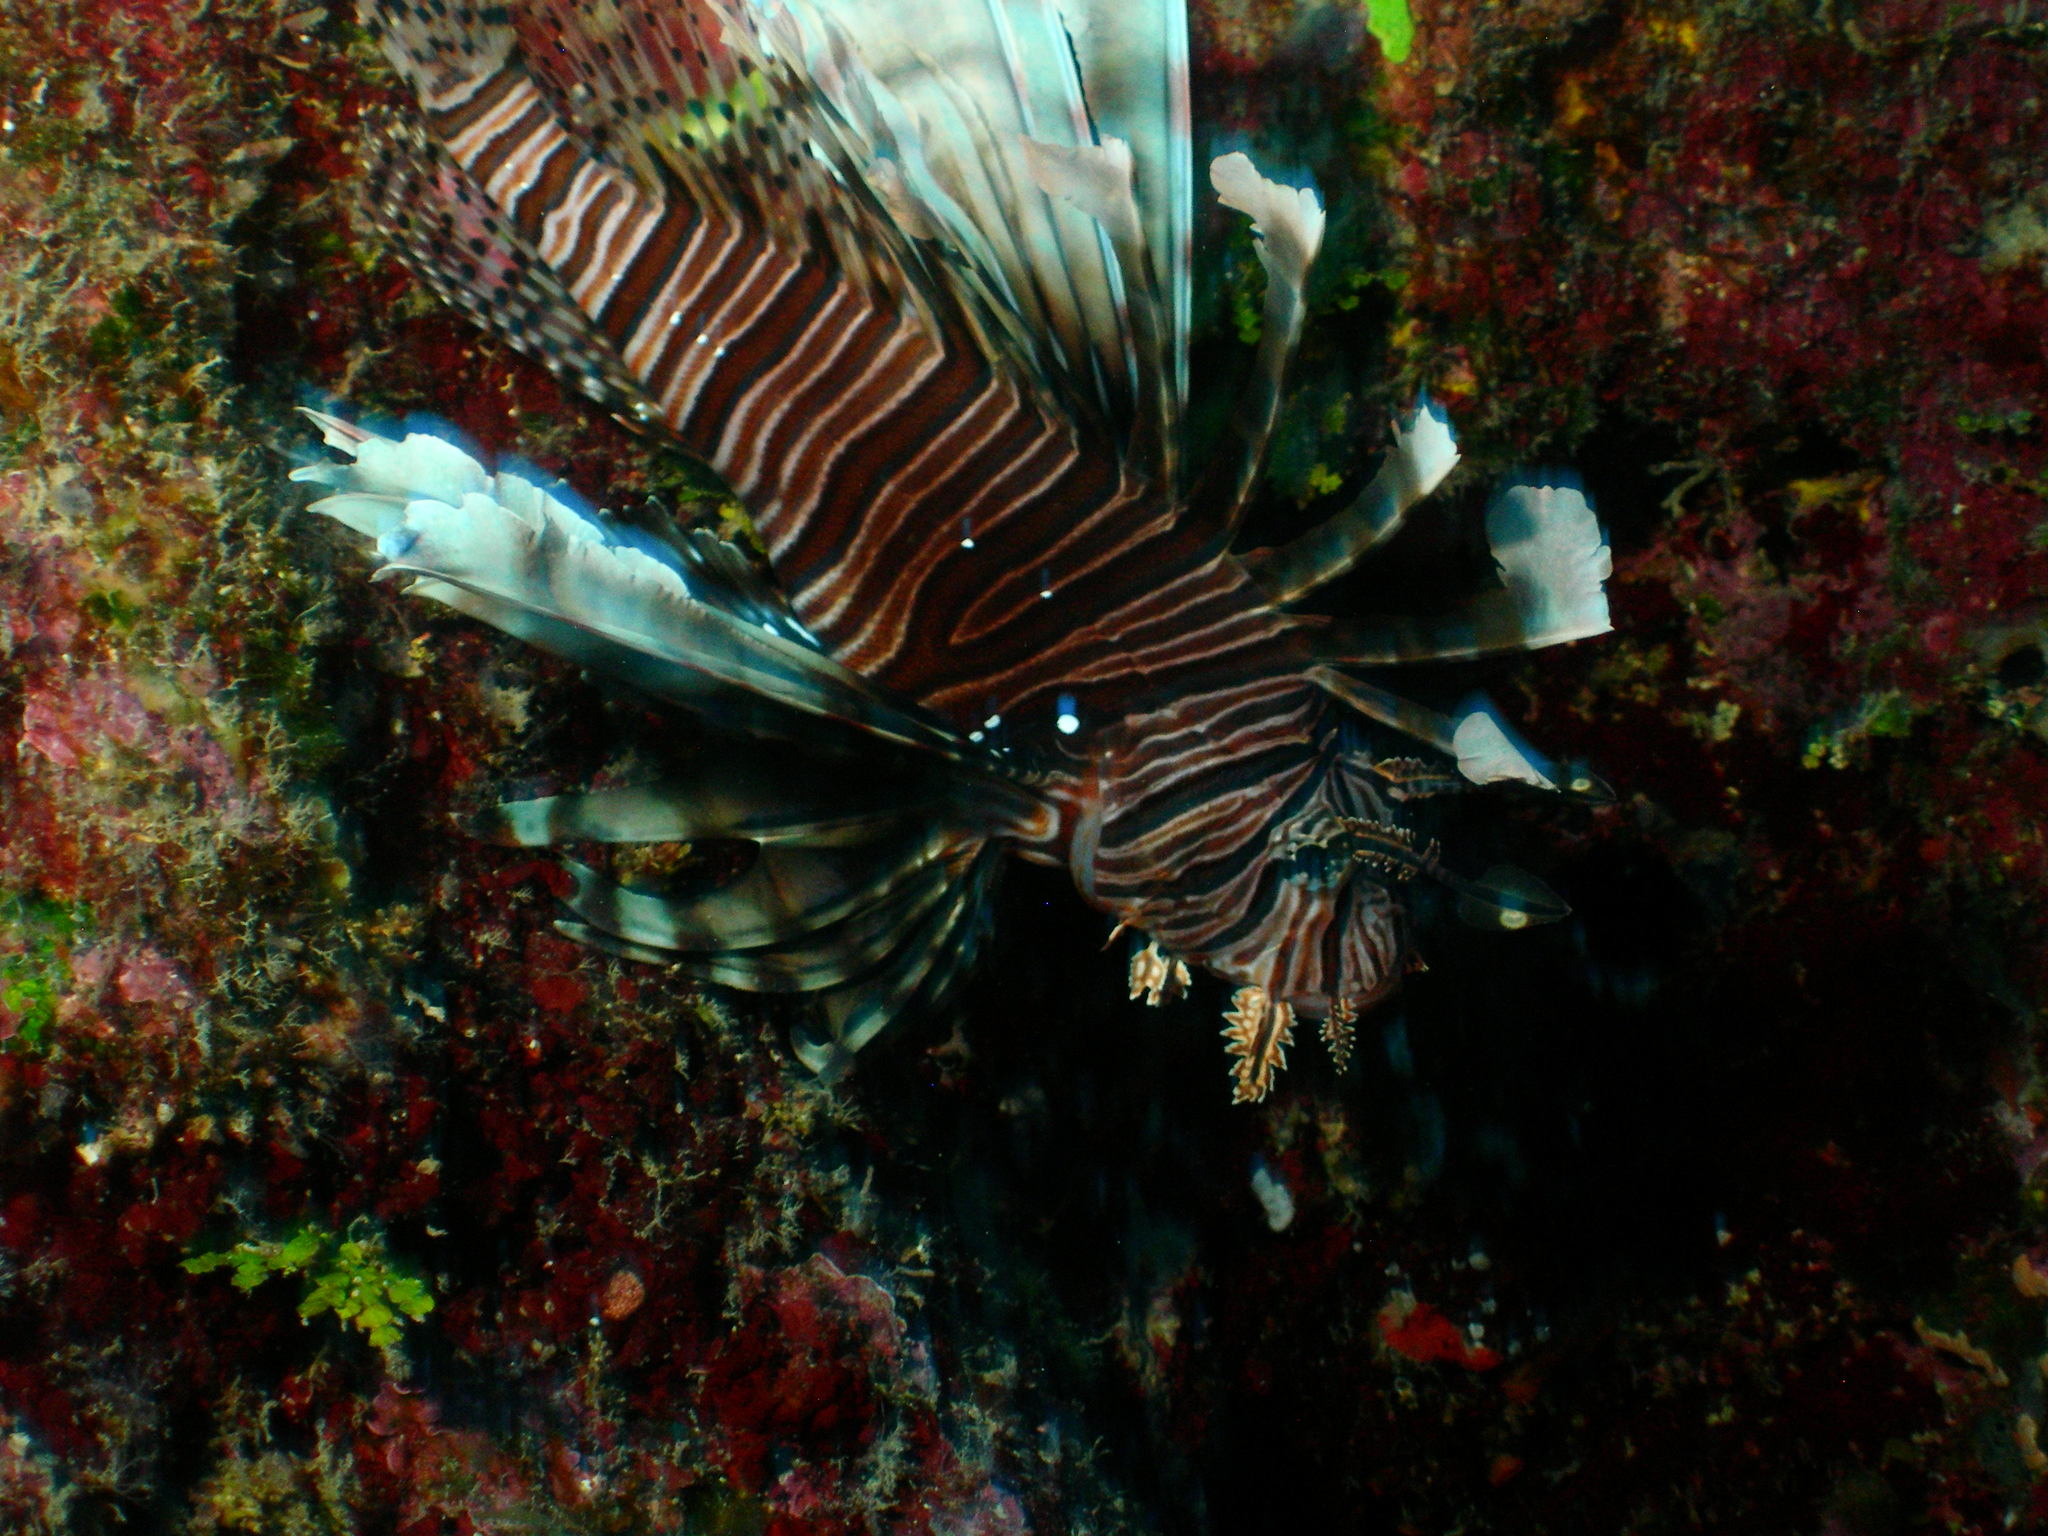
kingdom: Animalia
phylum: Chordata
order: Scorpaeniformes
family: Scorpaenidae
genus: Pterois
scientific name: Pterois volitans
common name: Lionfish
